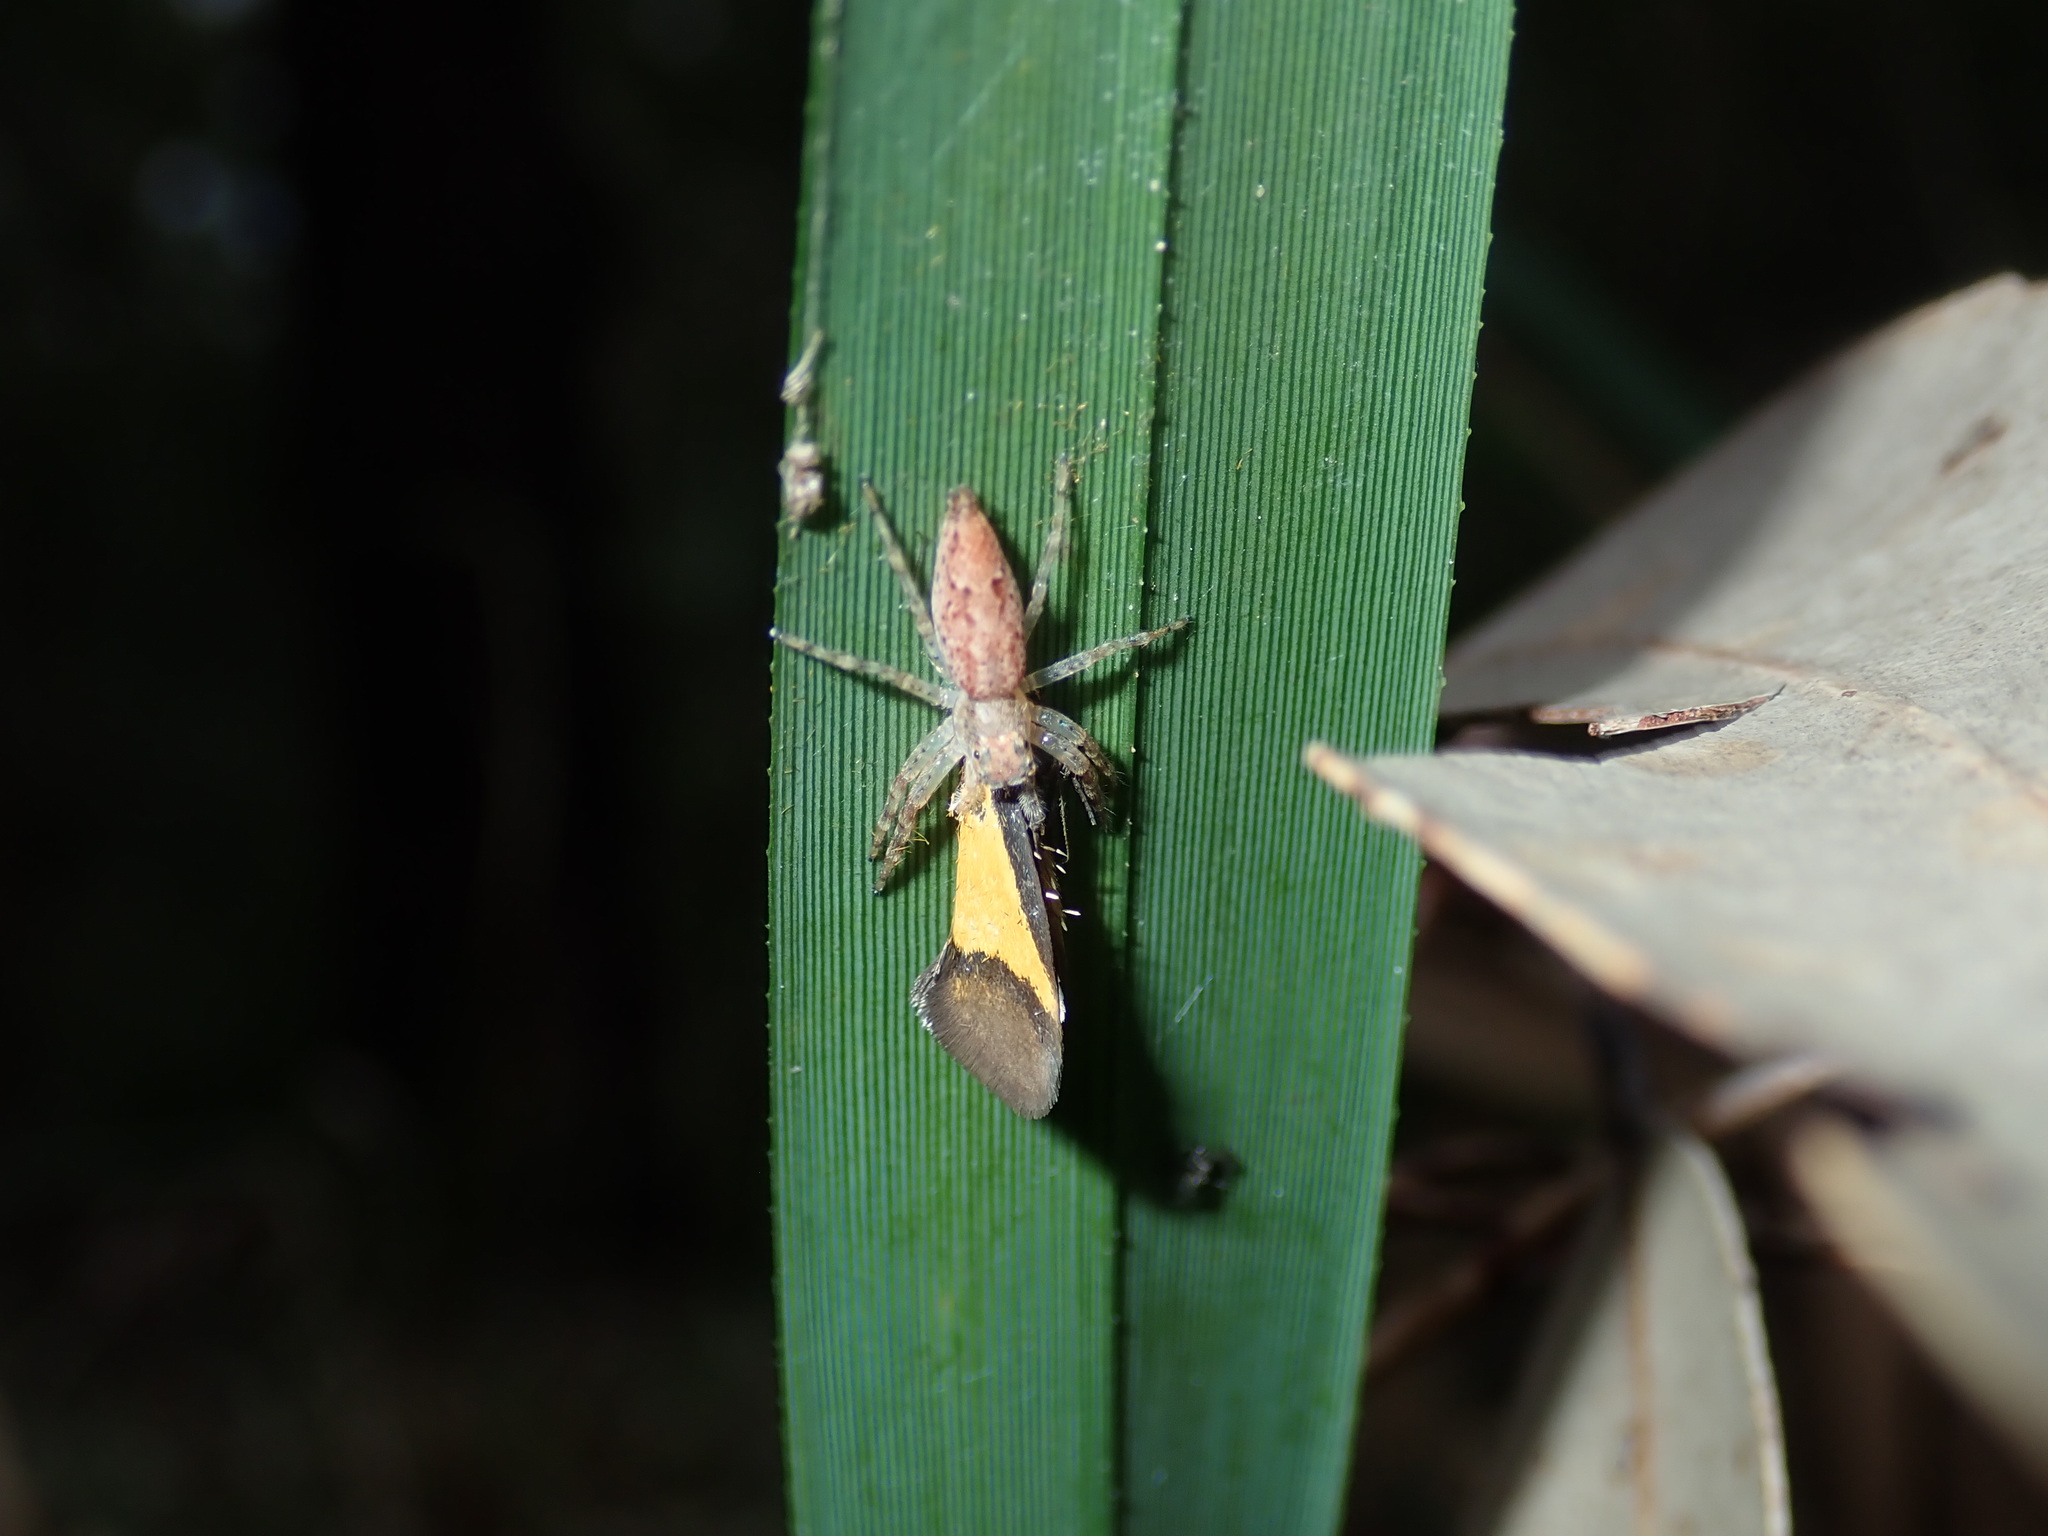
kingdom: Animalia
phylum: Arthropoda
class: Arachnida
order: Araneae
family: Salticidae
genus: Helpis
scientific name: Helpis minitabunda
